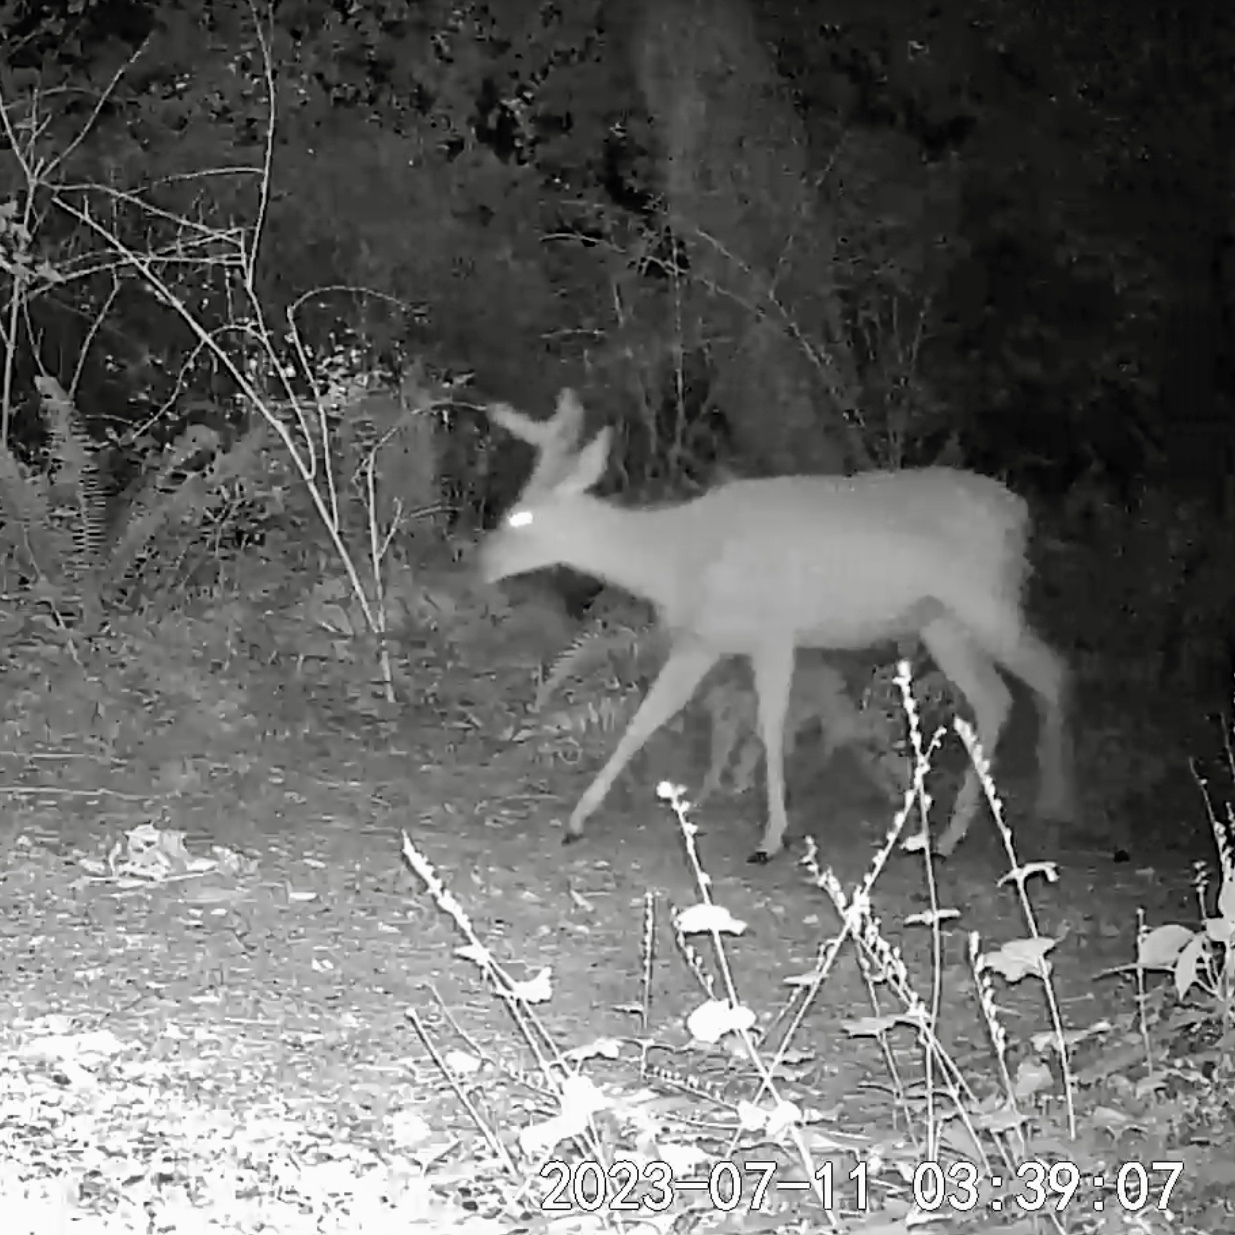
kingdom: Animalia
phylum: Chordata
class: Mammalia
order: Artiodactyla
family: Cervidae
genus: Odocoileus
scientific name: Odocoileus hemionus
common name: Mule deer
